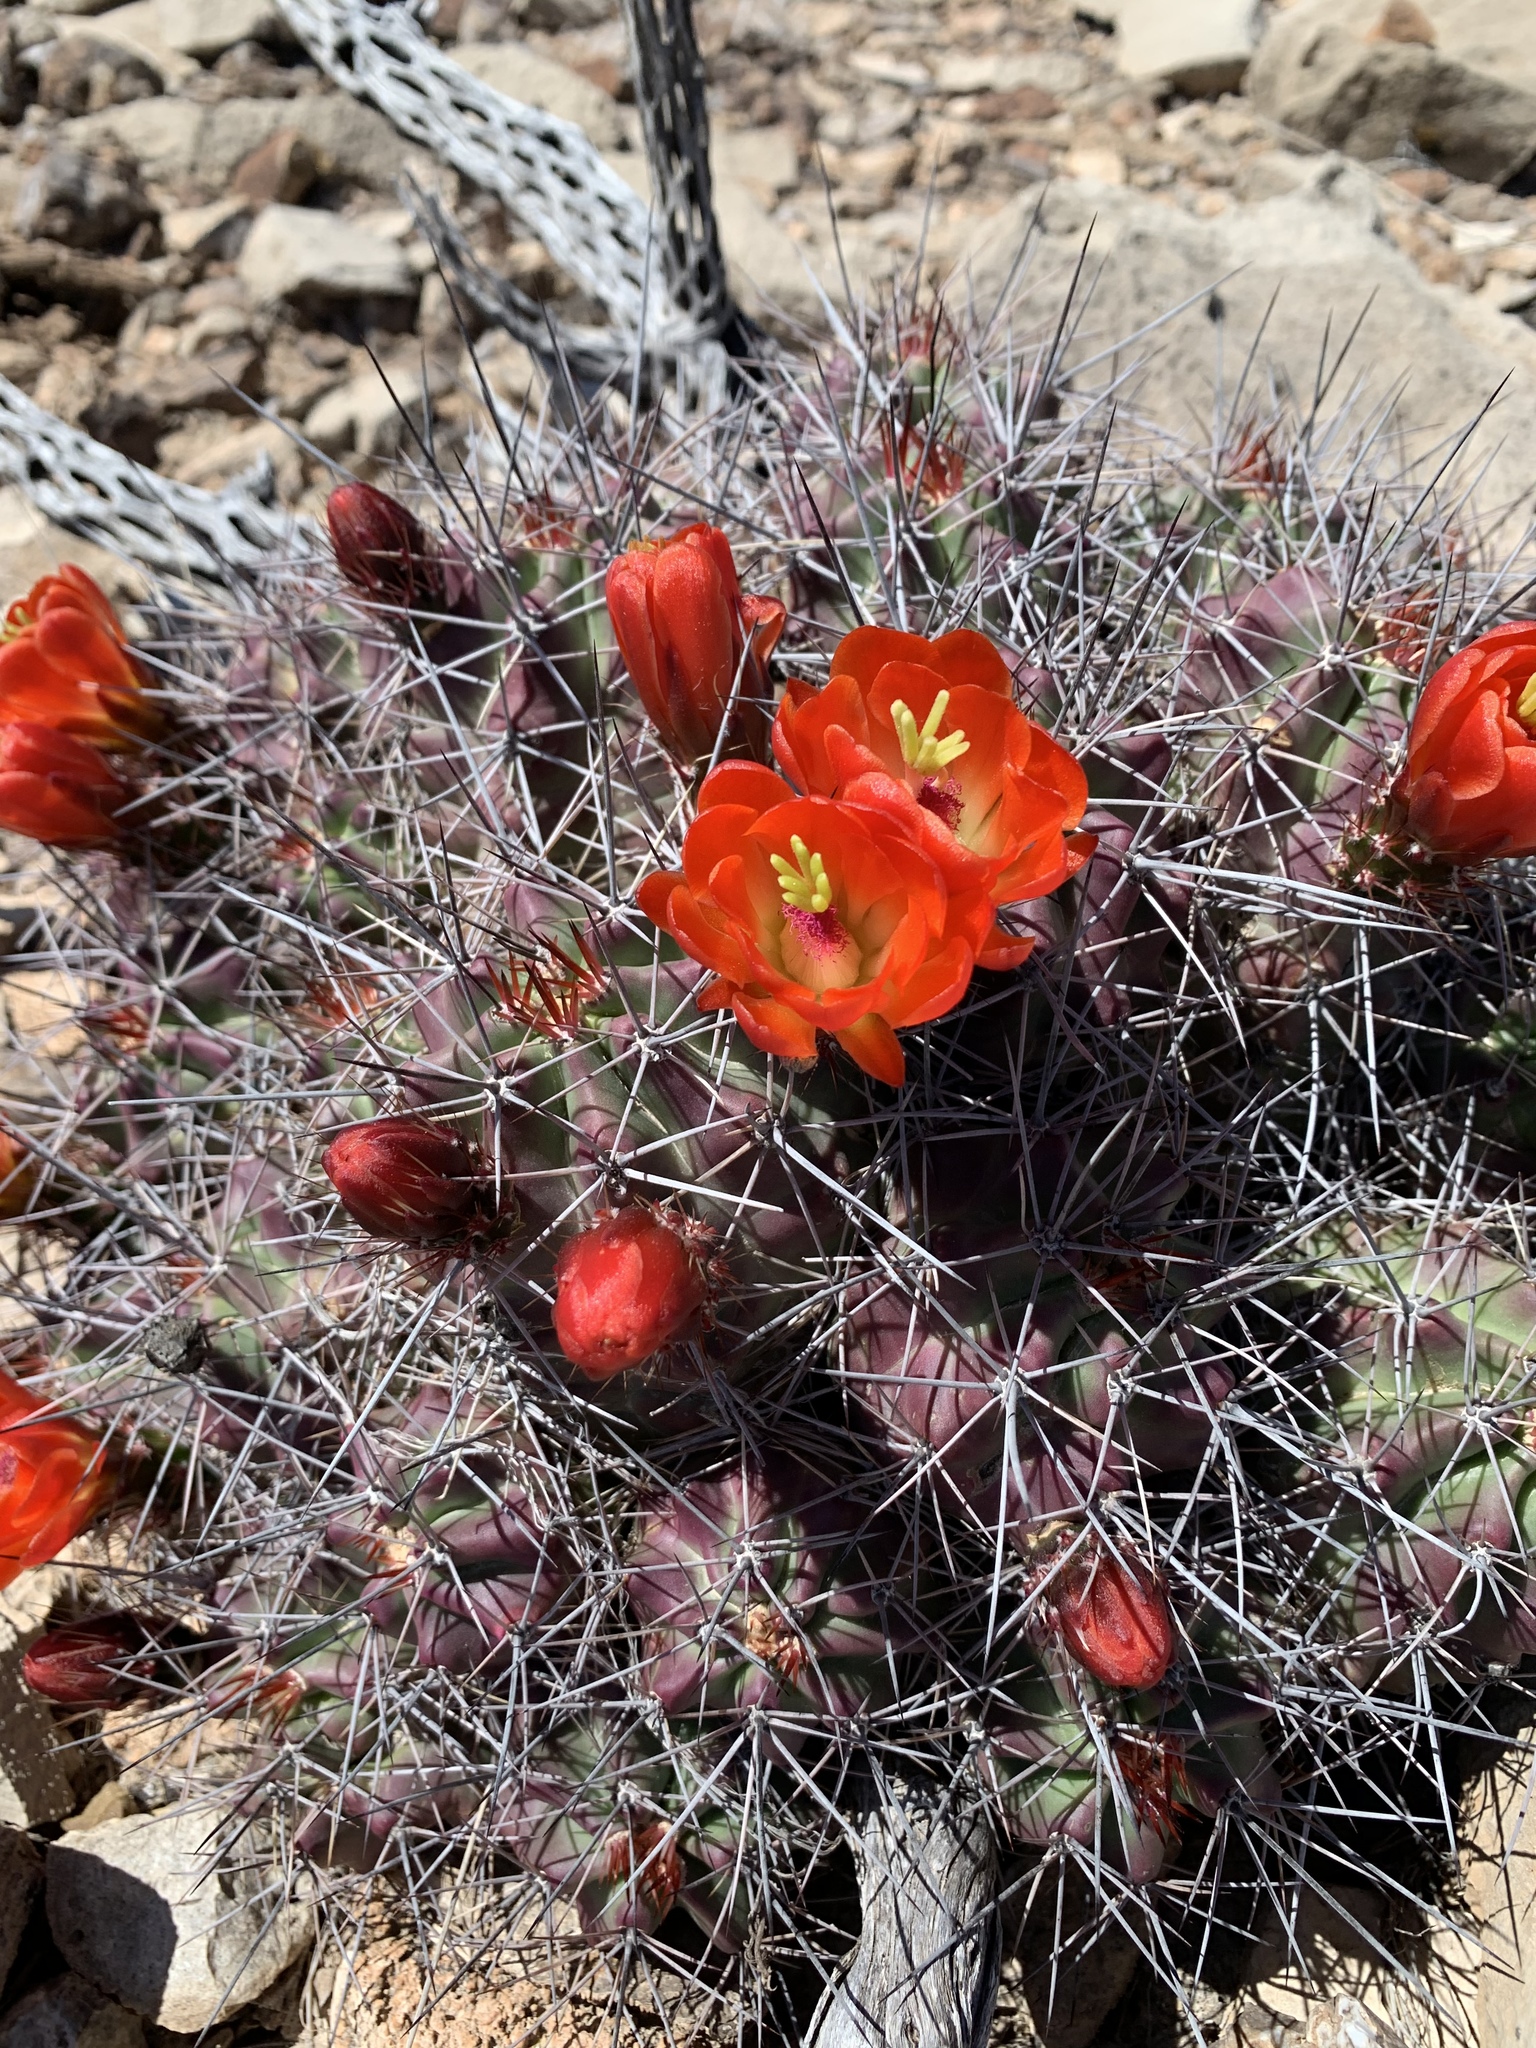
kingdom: Plantae
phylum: Tracheophyta
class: Magnoliopsida
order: Caryophyllales
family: Cactaceae
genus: Echinocereus
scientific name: Echinocereus coccineus
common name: Scarlet hedgehog cactus
